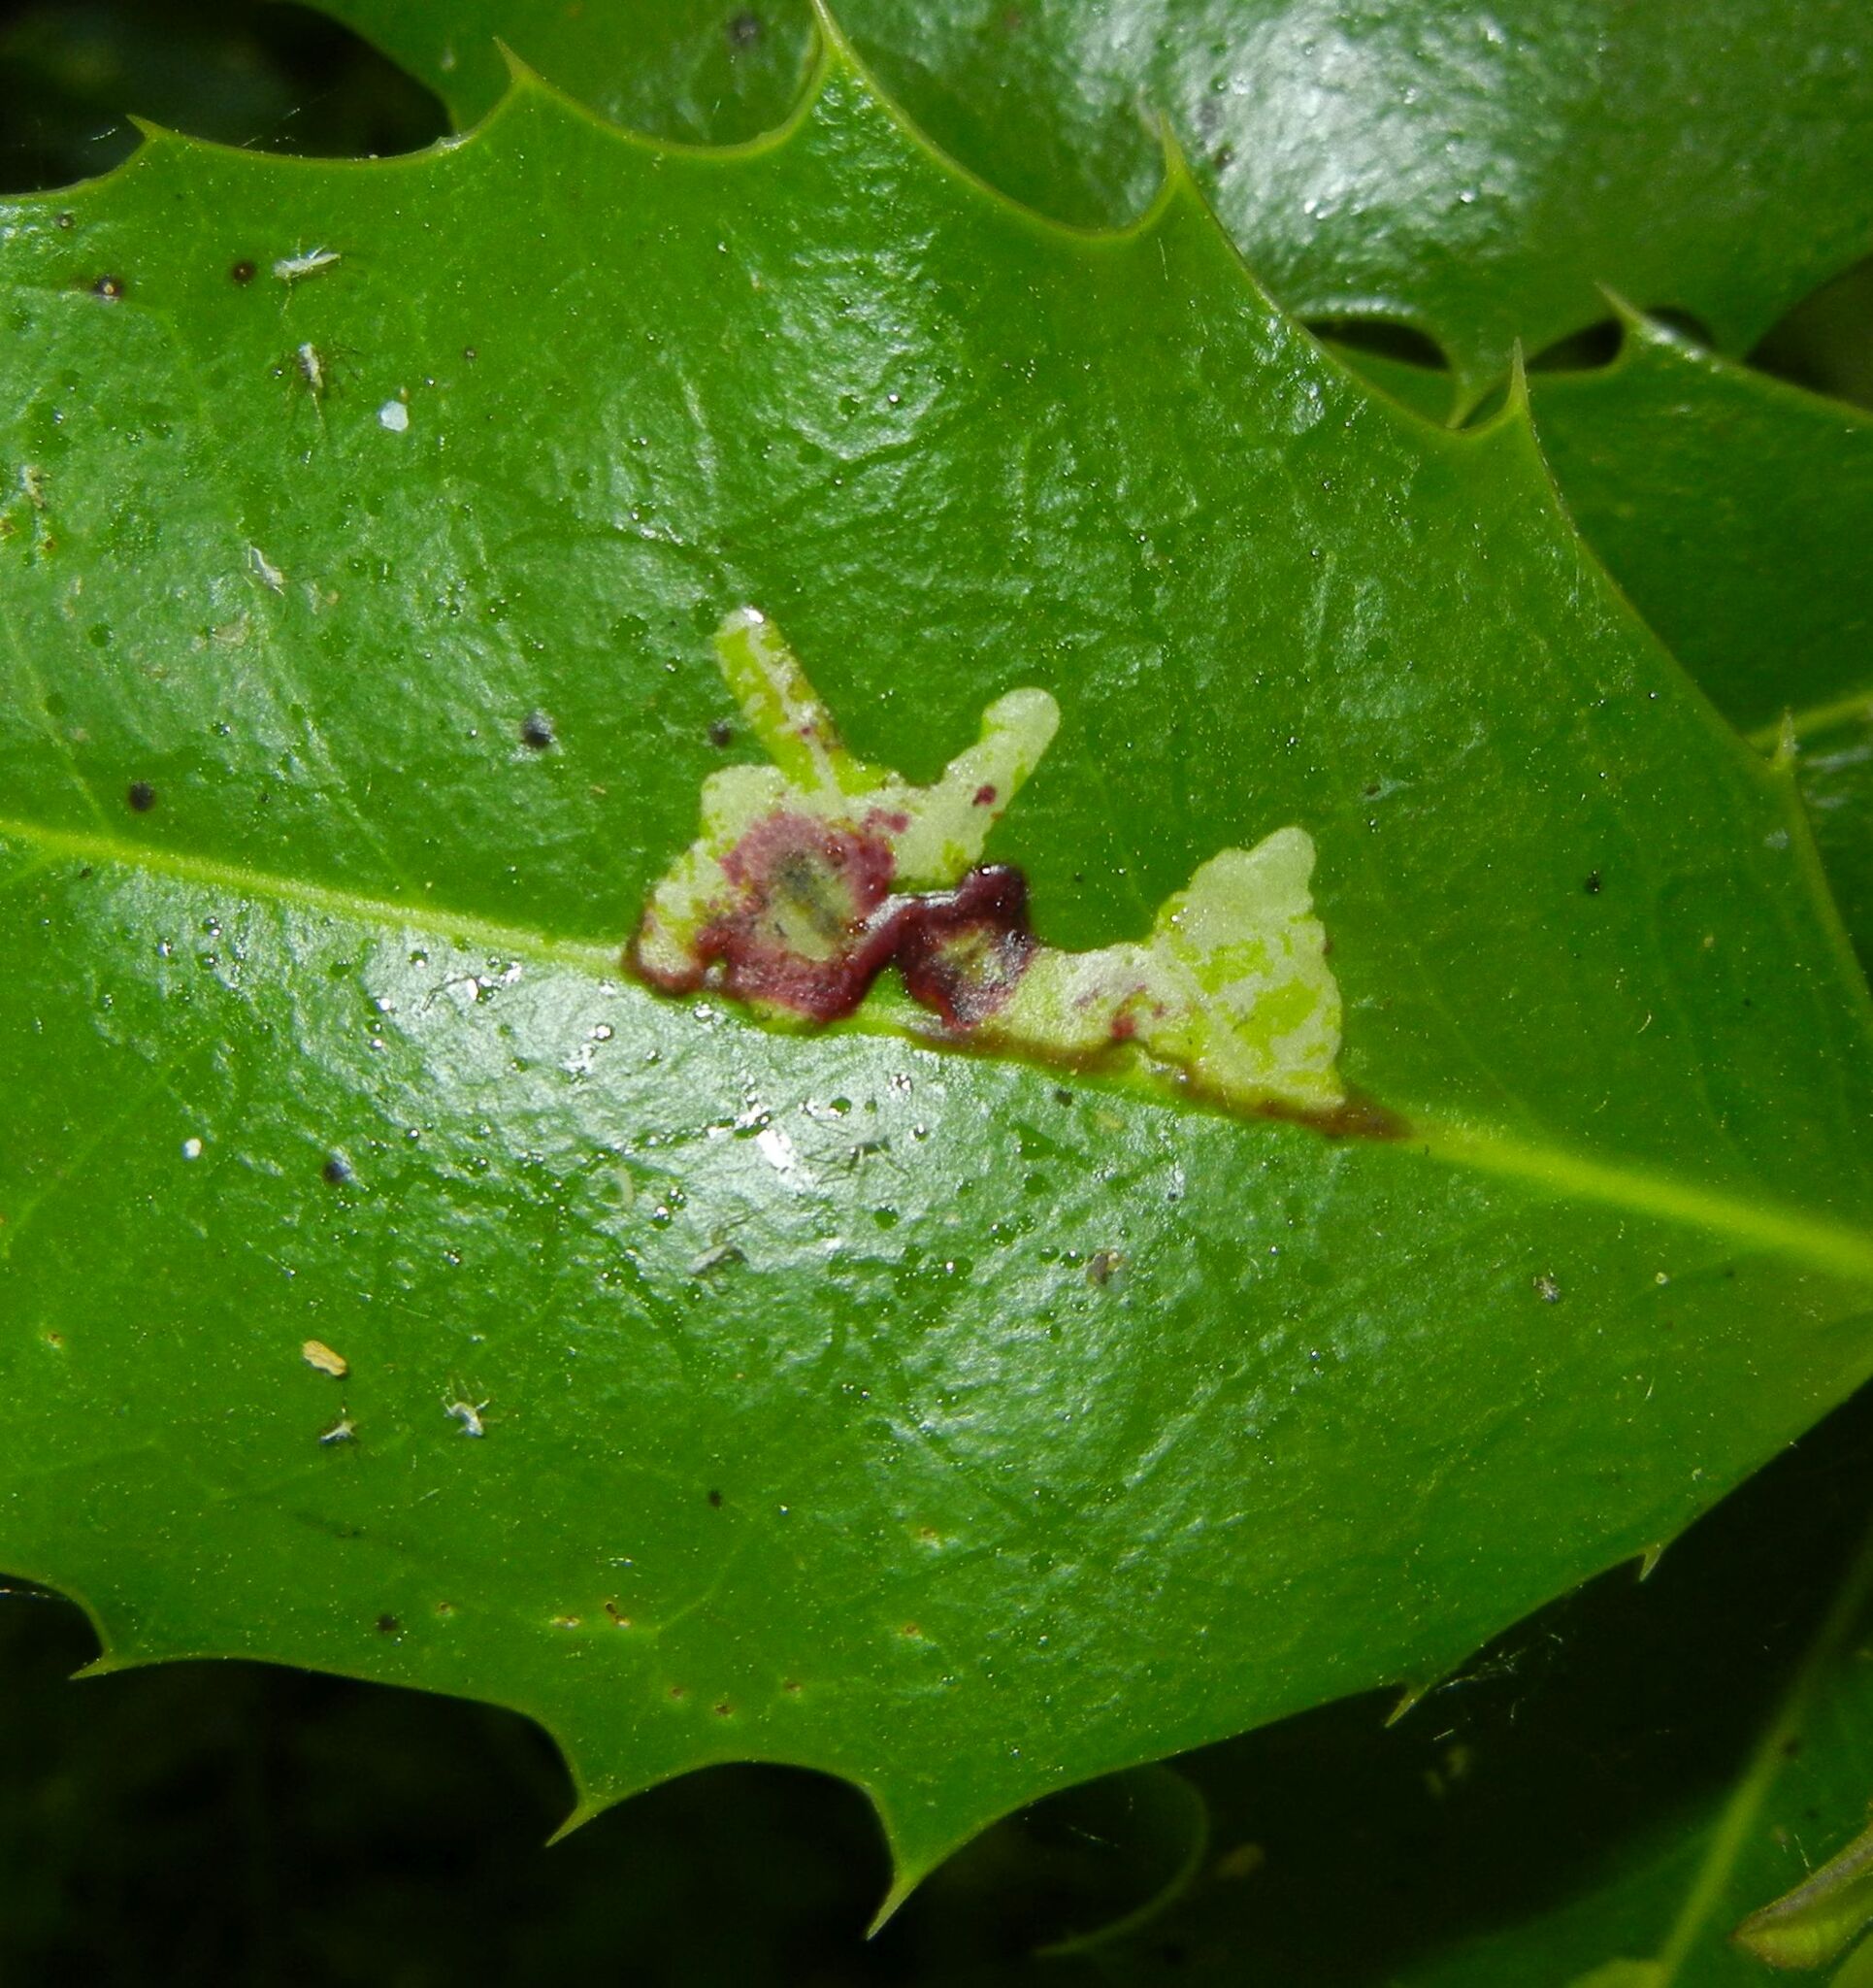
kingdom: Animalia
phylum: Arthropoda
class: Insecta
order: Diptera
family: Agromyzidae
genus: Phytomyza
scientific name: Phytomyza ilicis
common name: Holly leafminer
